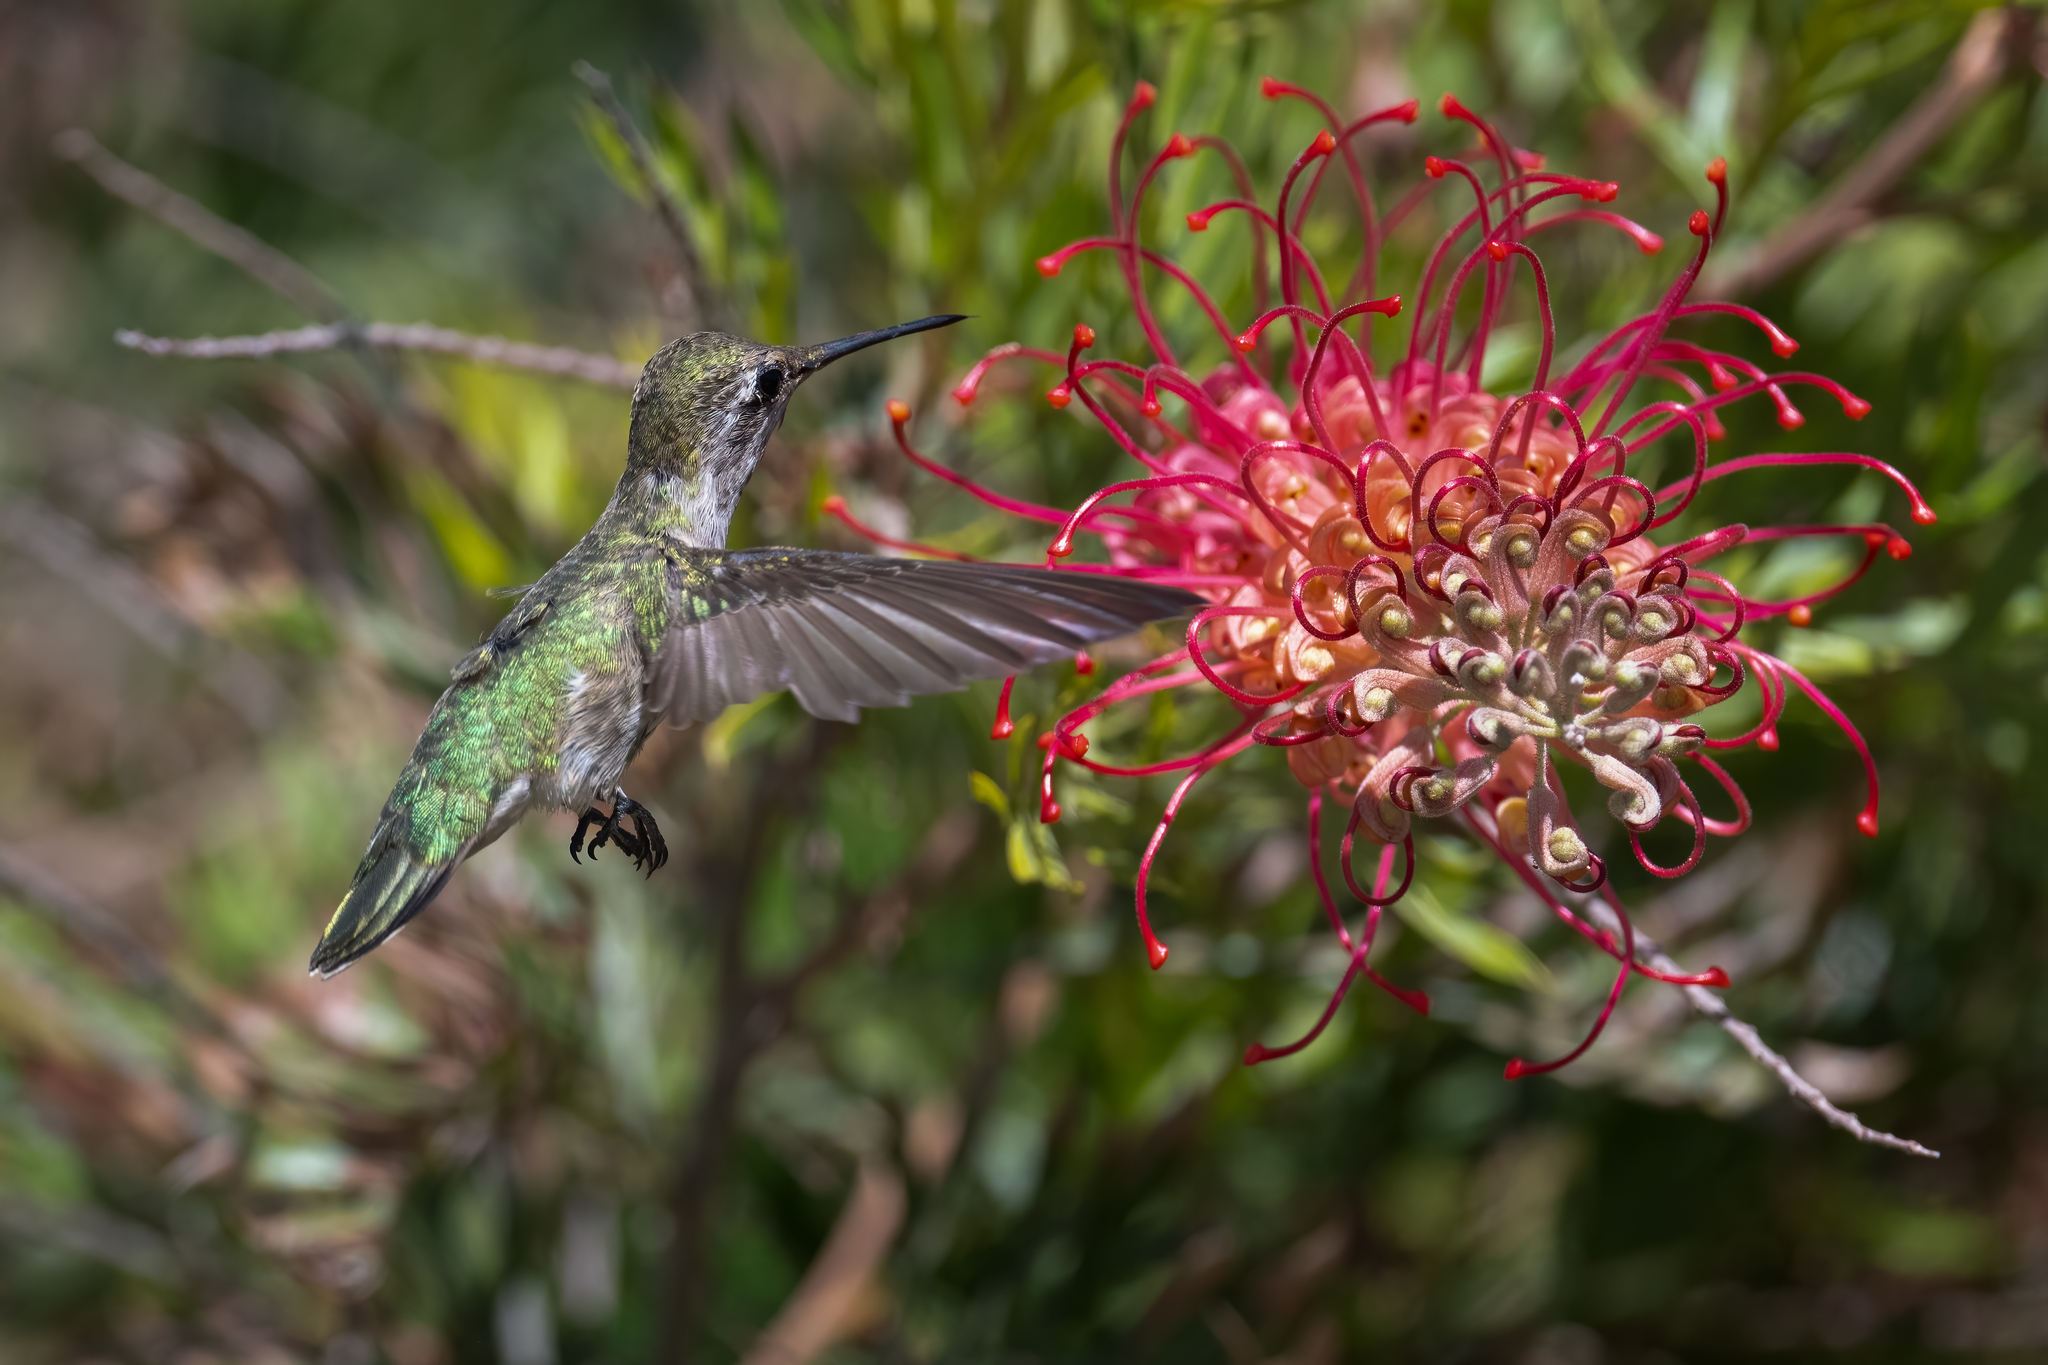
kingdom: Animalia
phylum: Chordata
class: Aves
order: Apodiformes
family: Trochilidae
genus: Archilochus
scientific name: Archilochus alexandri
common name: Black-chinned hummingbird
